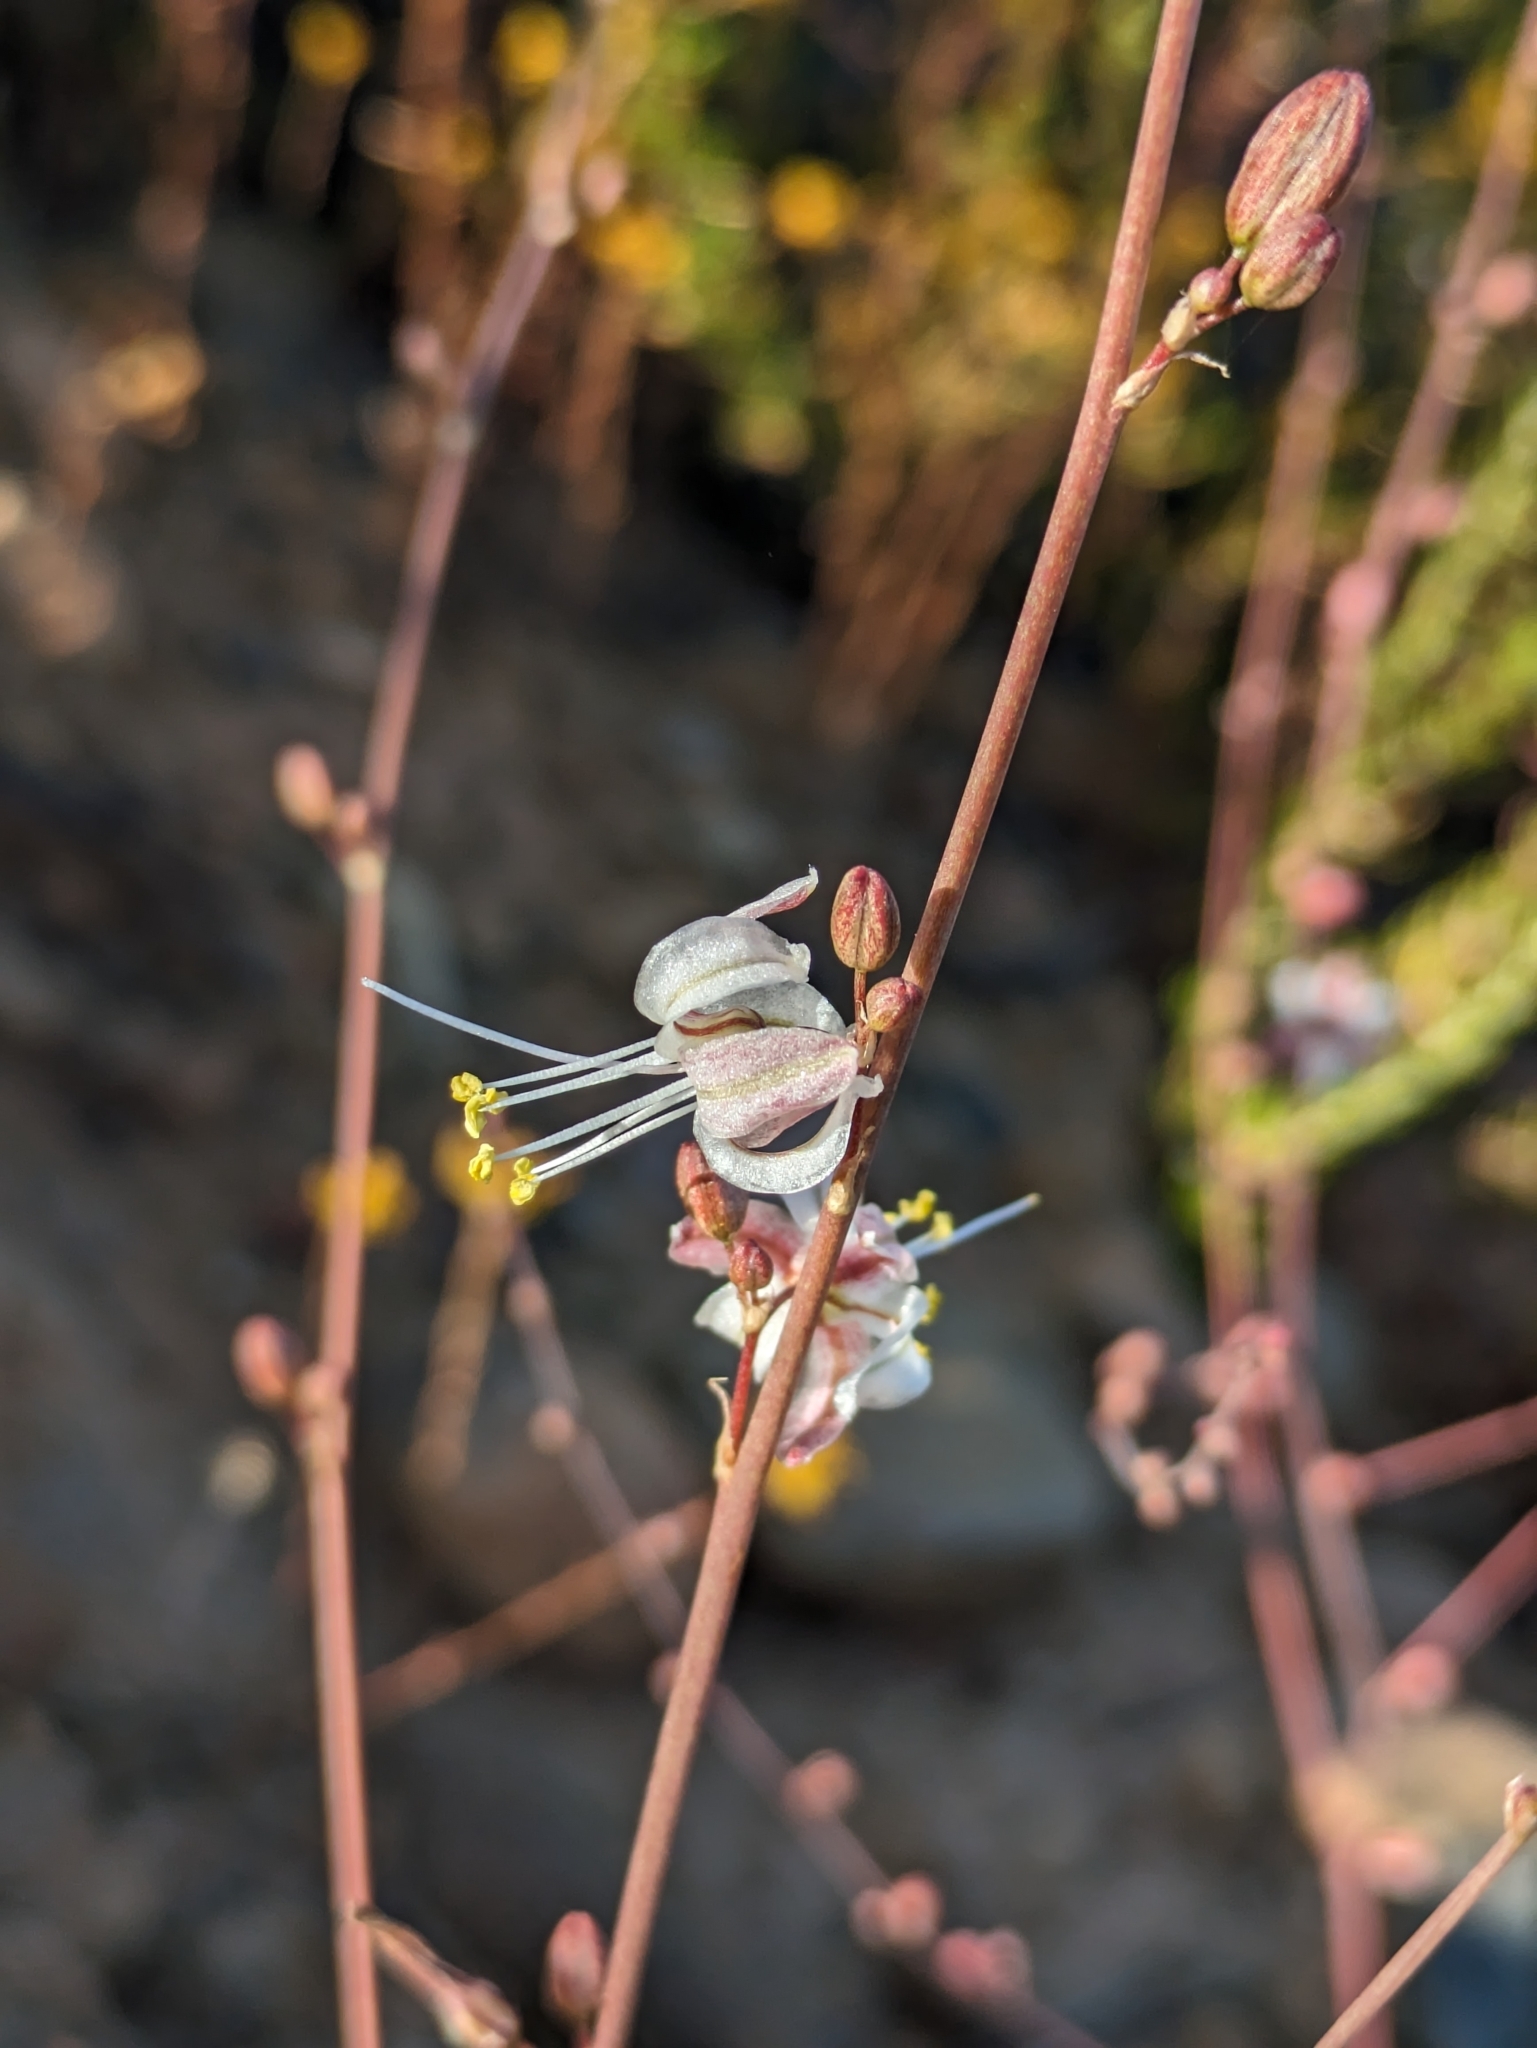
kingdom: Plantae
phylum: Tracheophyta
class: Liliopsida
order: Asparagales
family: Asparagaceae
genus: Hooveria
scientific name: Hooveria parviflora
